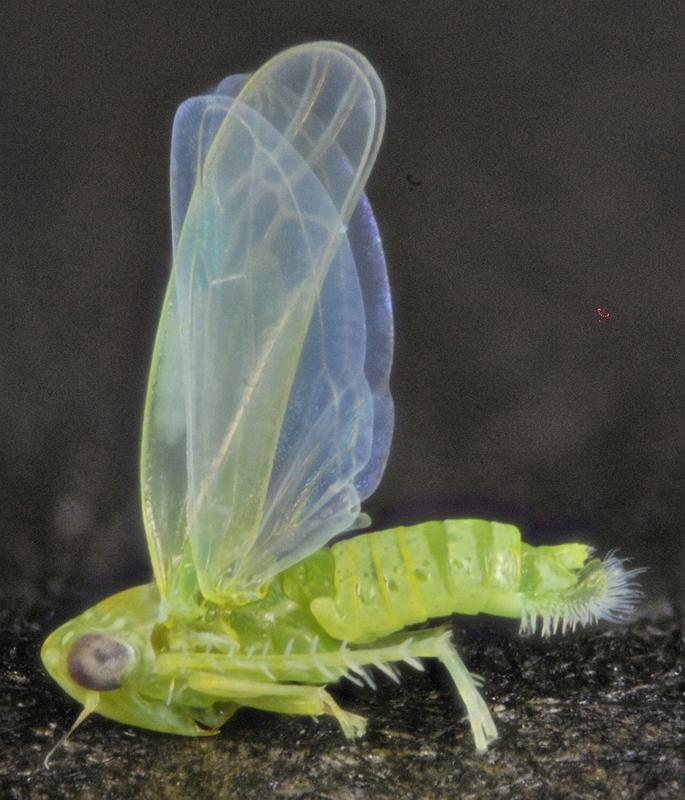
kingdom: Animalia
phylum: Arthropoda
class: Insecta
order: Hemiptera
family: Cicadellidae
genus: Empoasca
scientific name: Empoasca fabae
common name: Potato leafhopper
